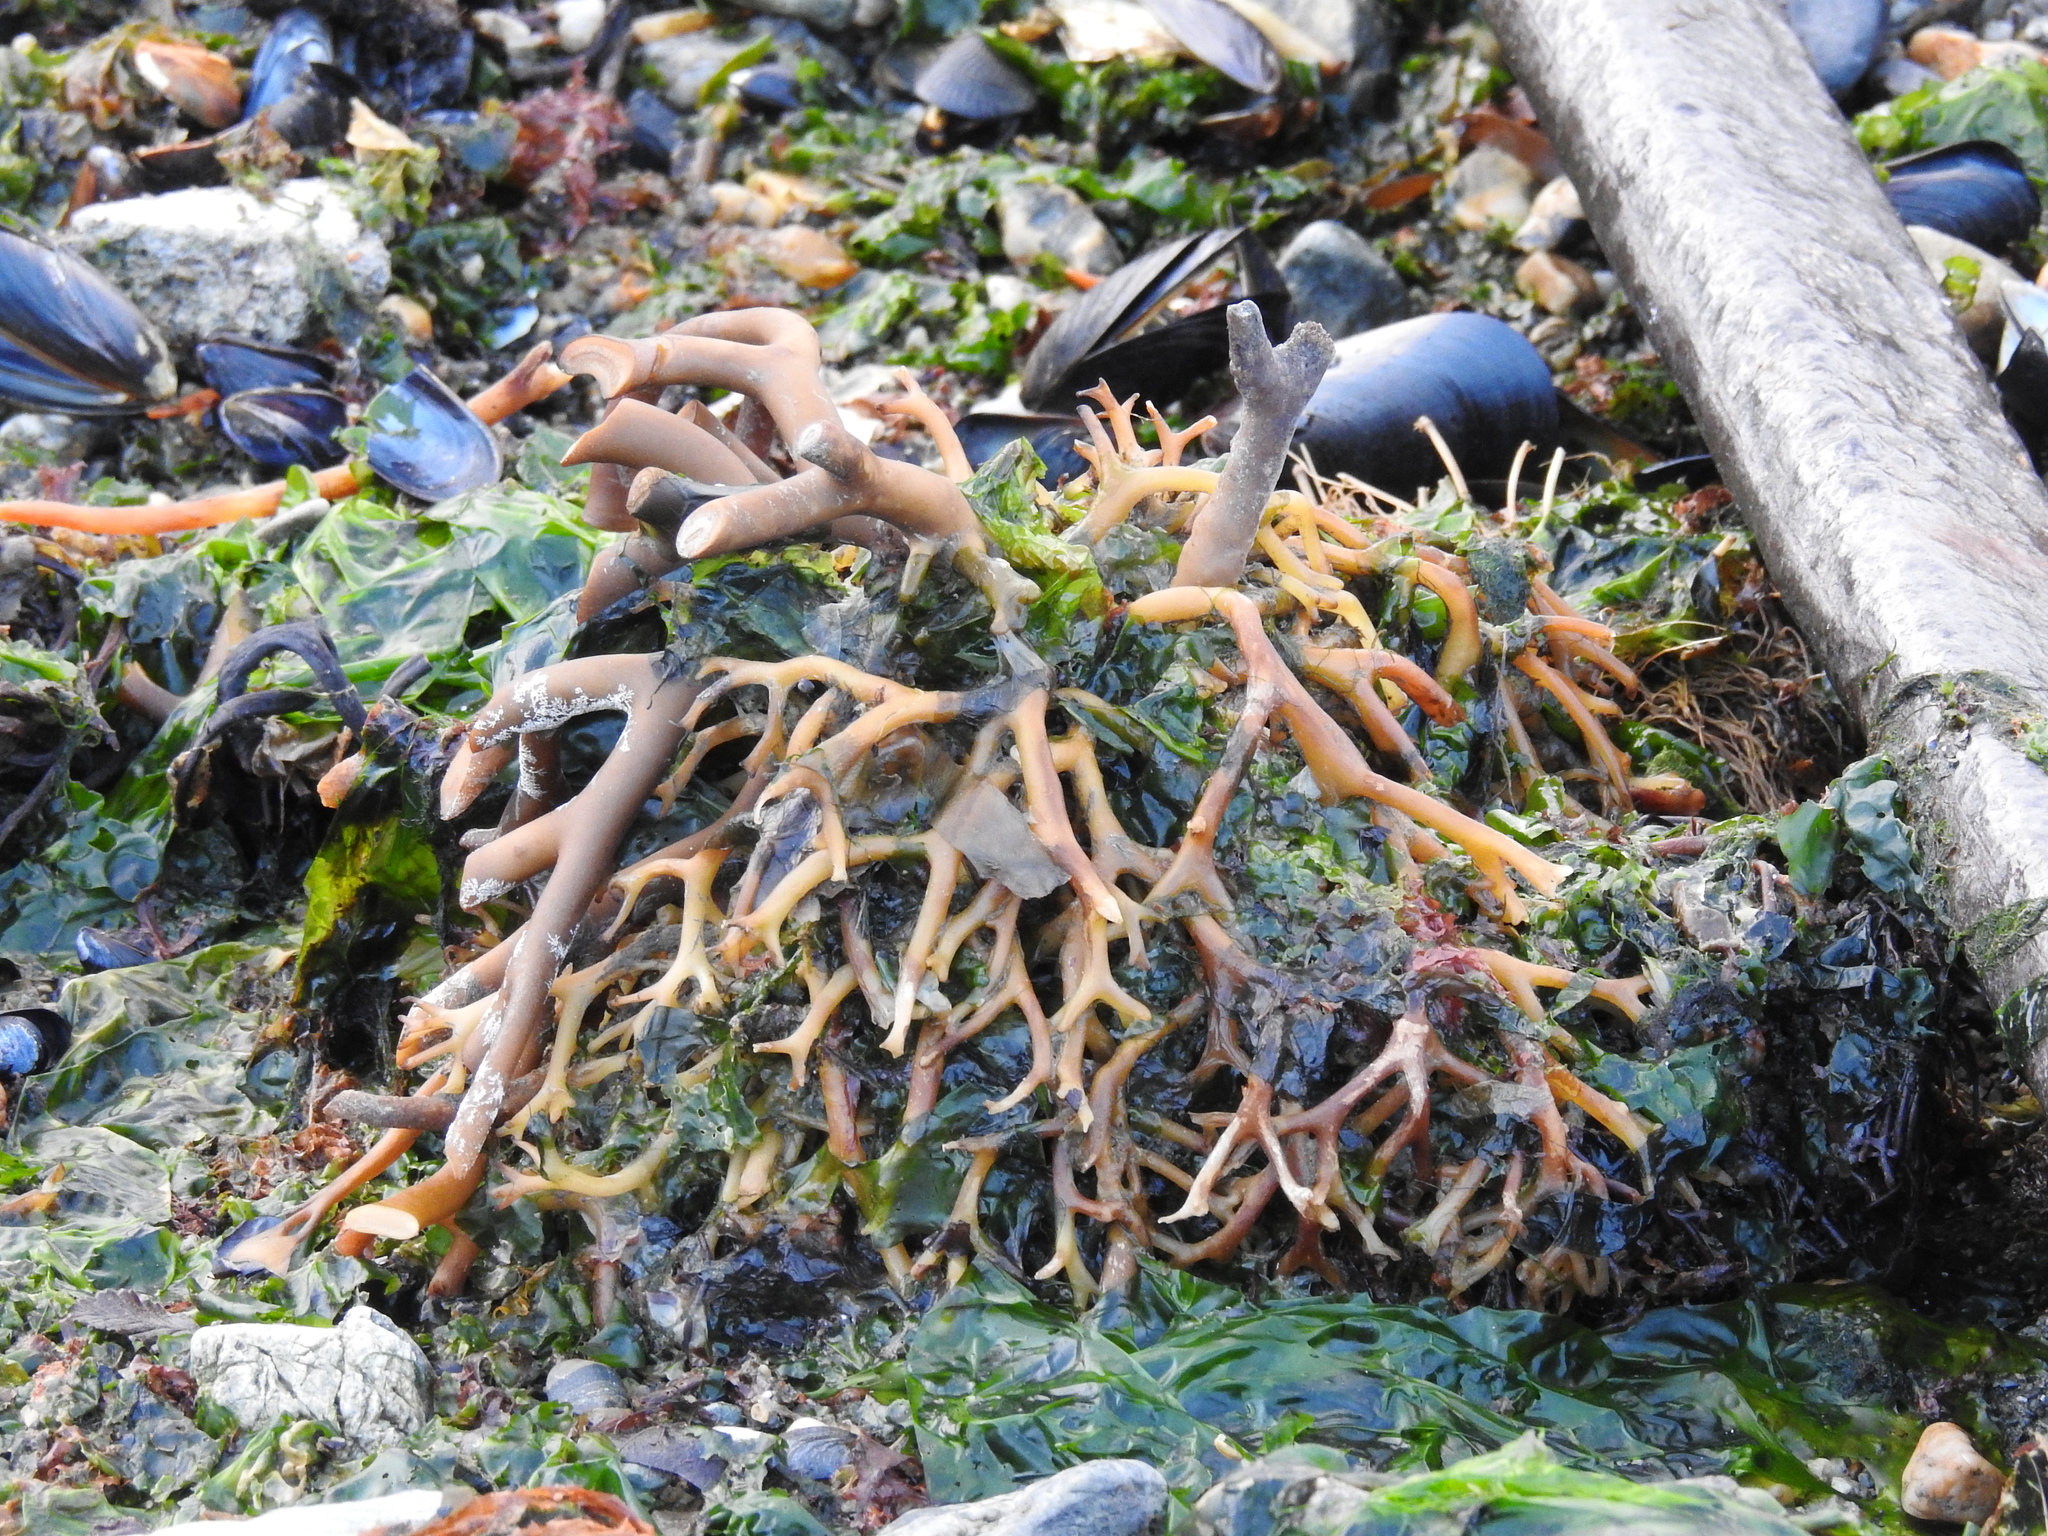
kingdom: Chromista
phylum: Ochrophyta
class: Phaeophyceae
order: Laminariales
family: Laminariaceae
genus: Macrocystis
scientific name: Macrocystis pyrifera
